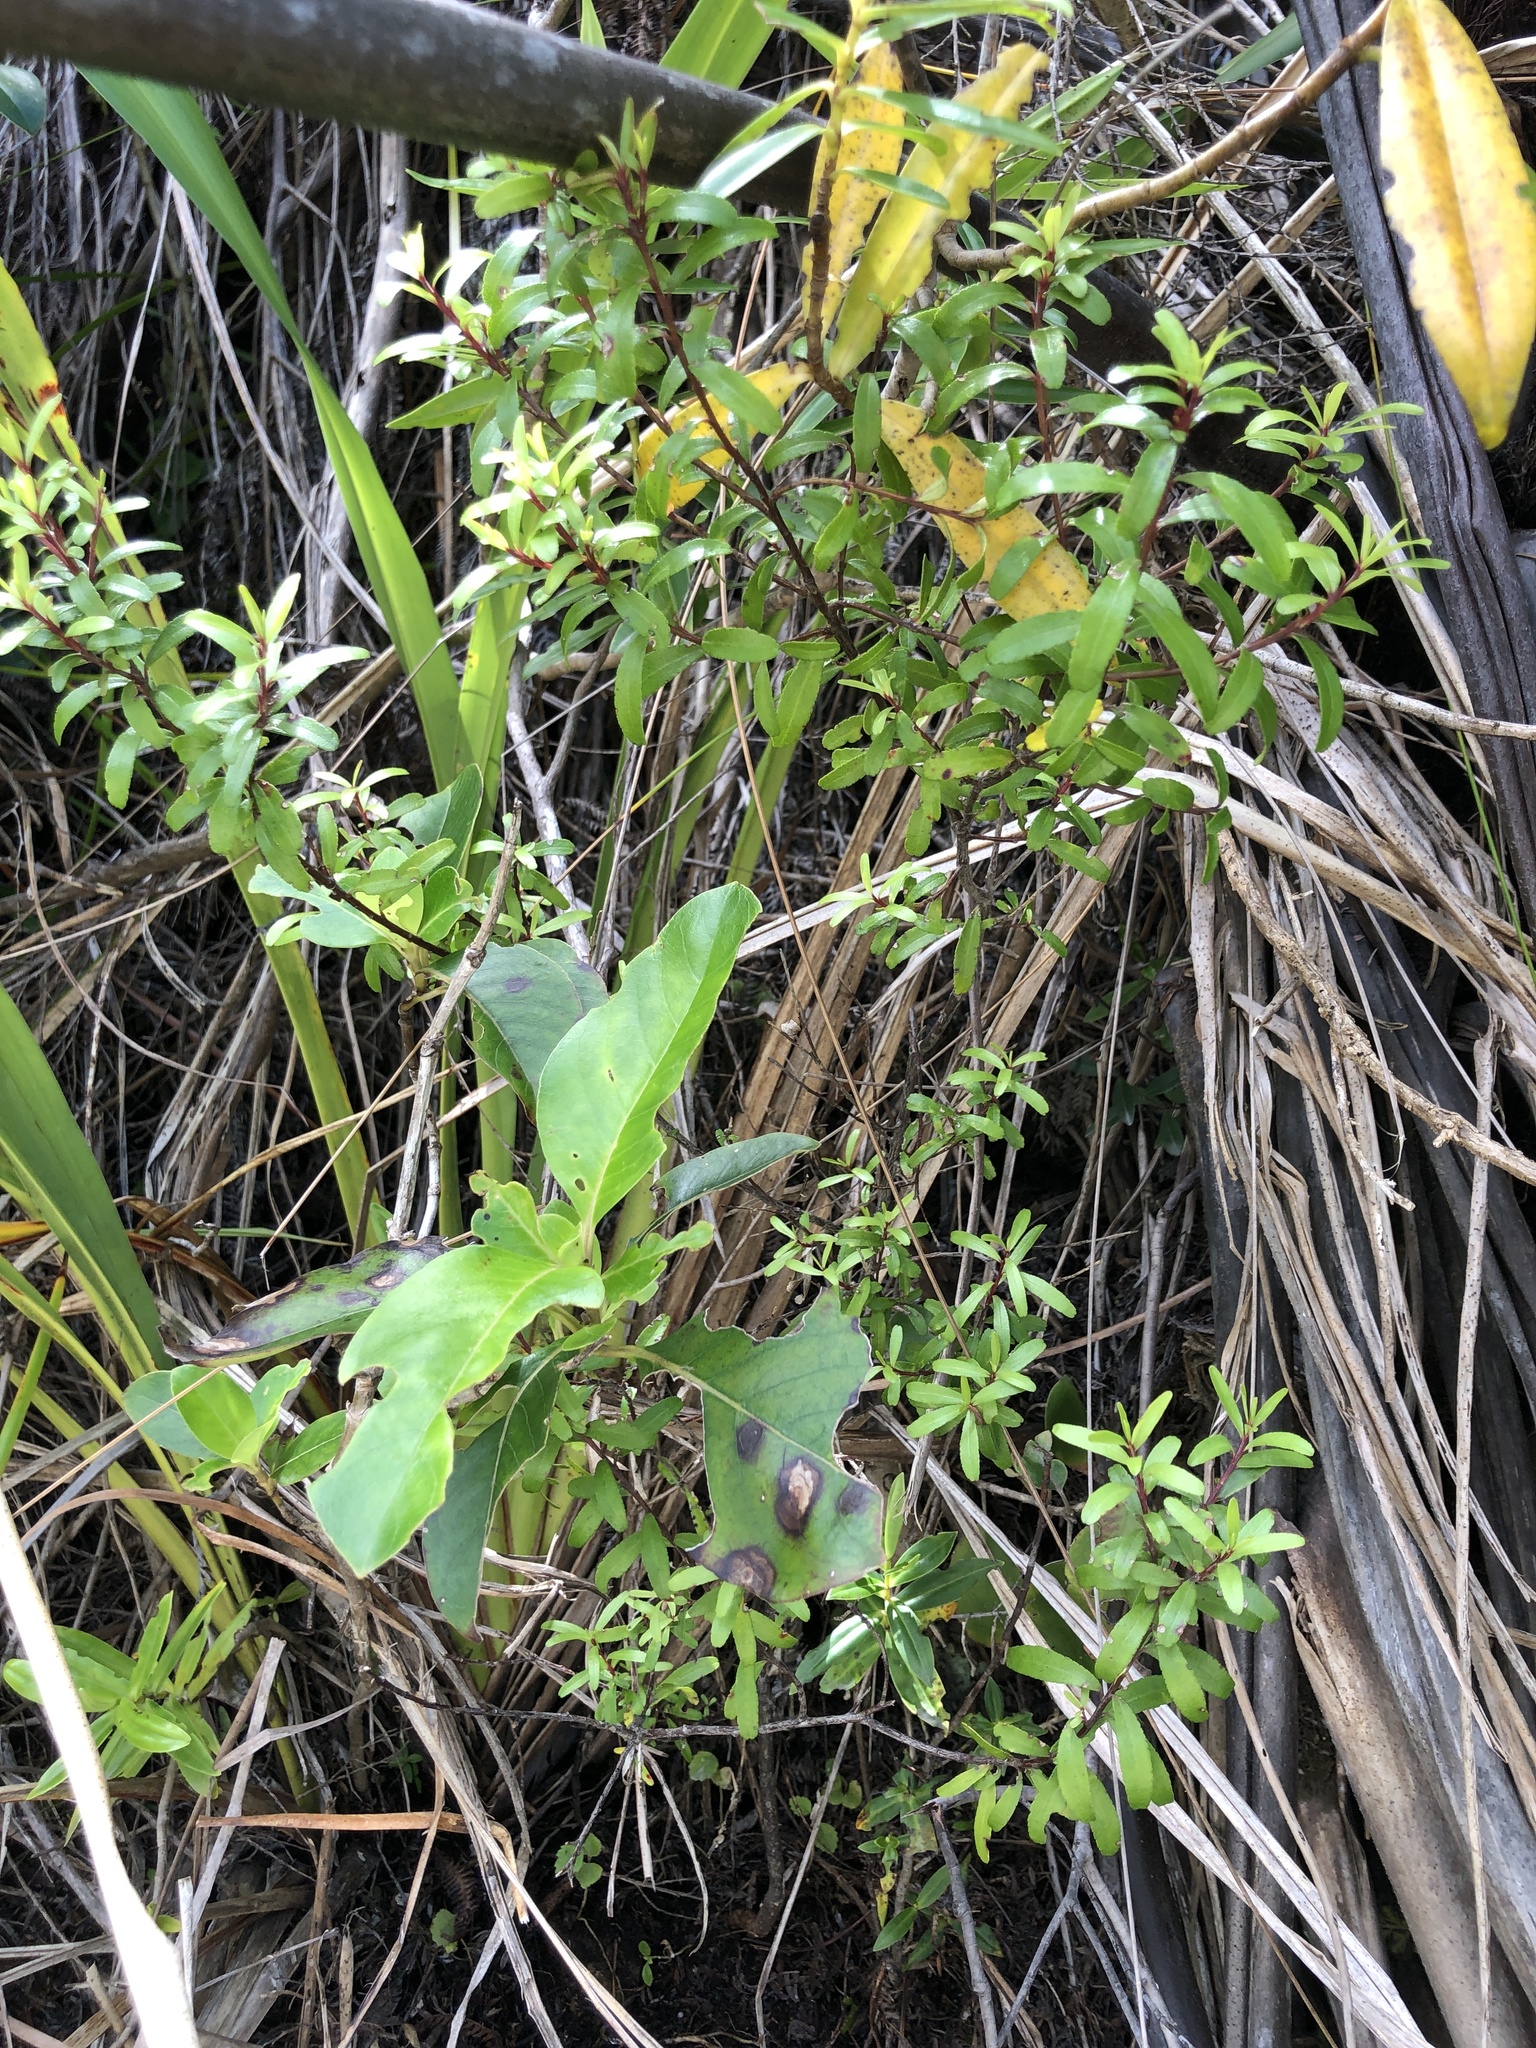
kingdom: Plantae
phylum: Tracheophyta
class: Magnoliopsida
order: Sapindales
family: Rutaceae
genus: Leionema
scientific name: Leionema nudum
